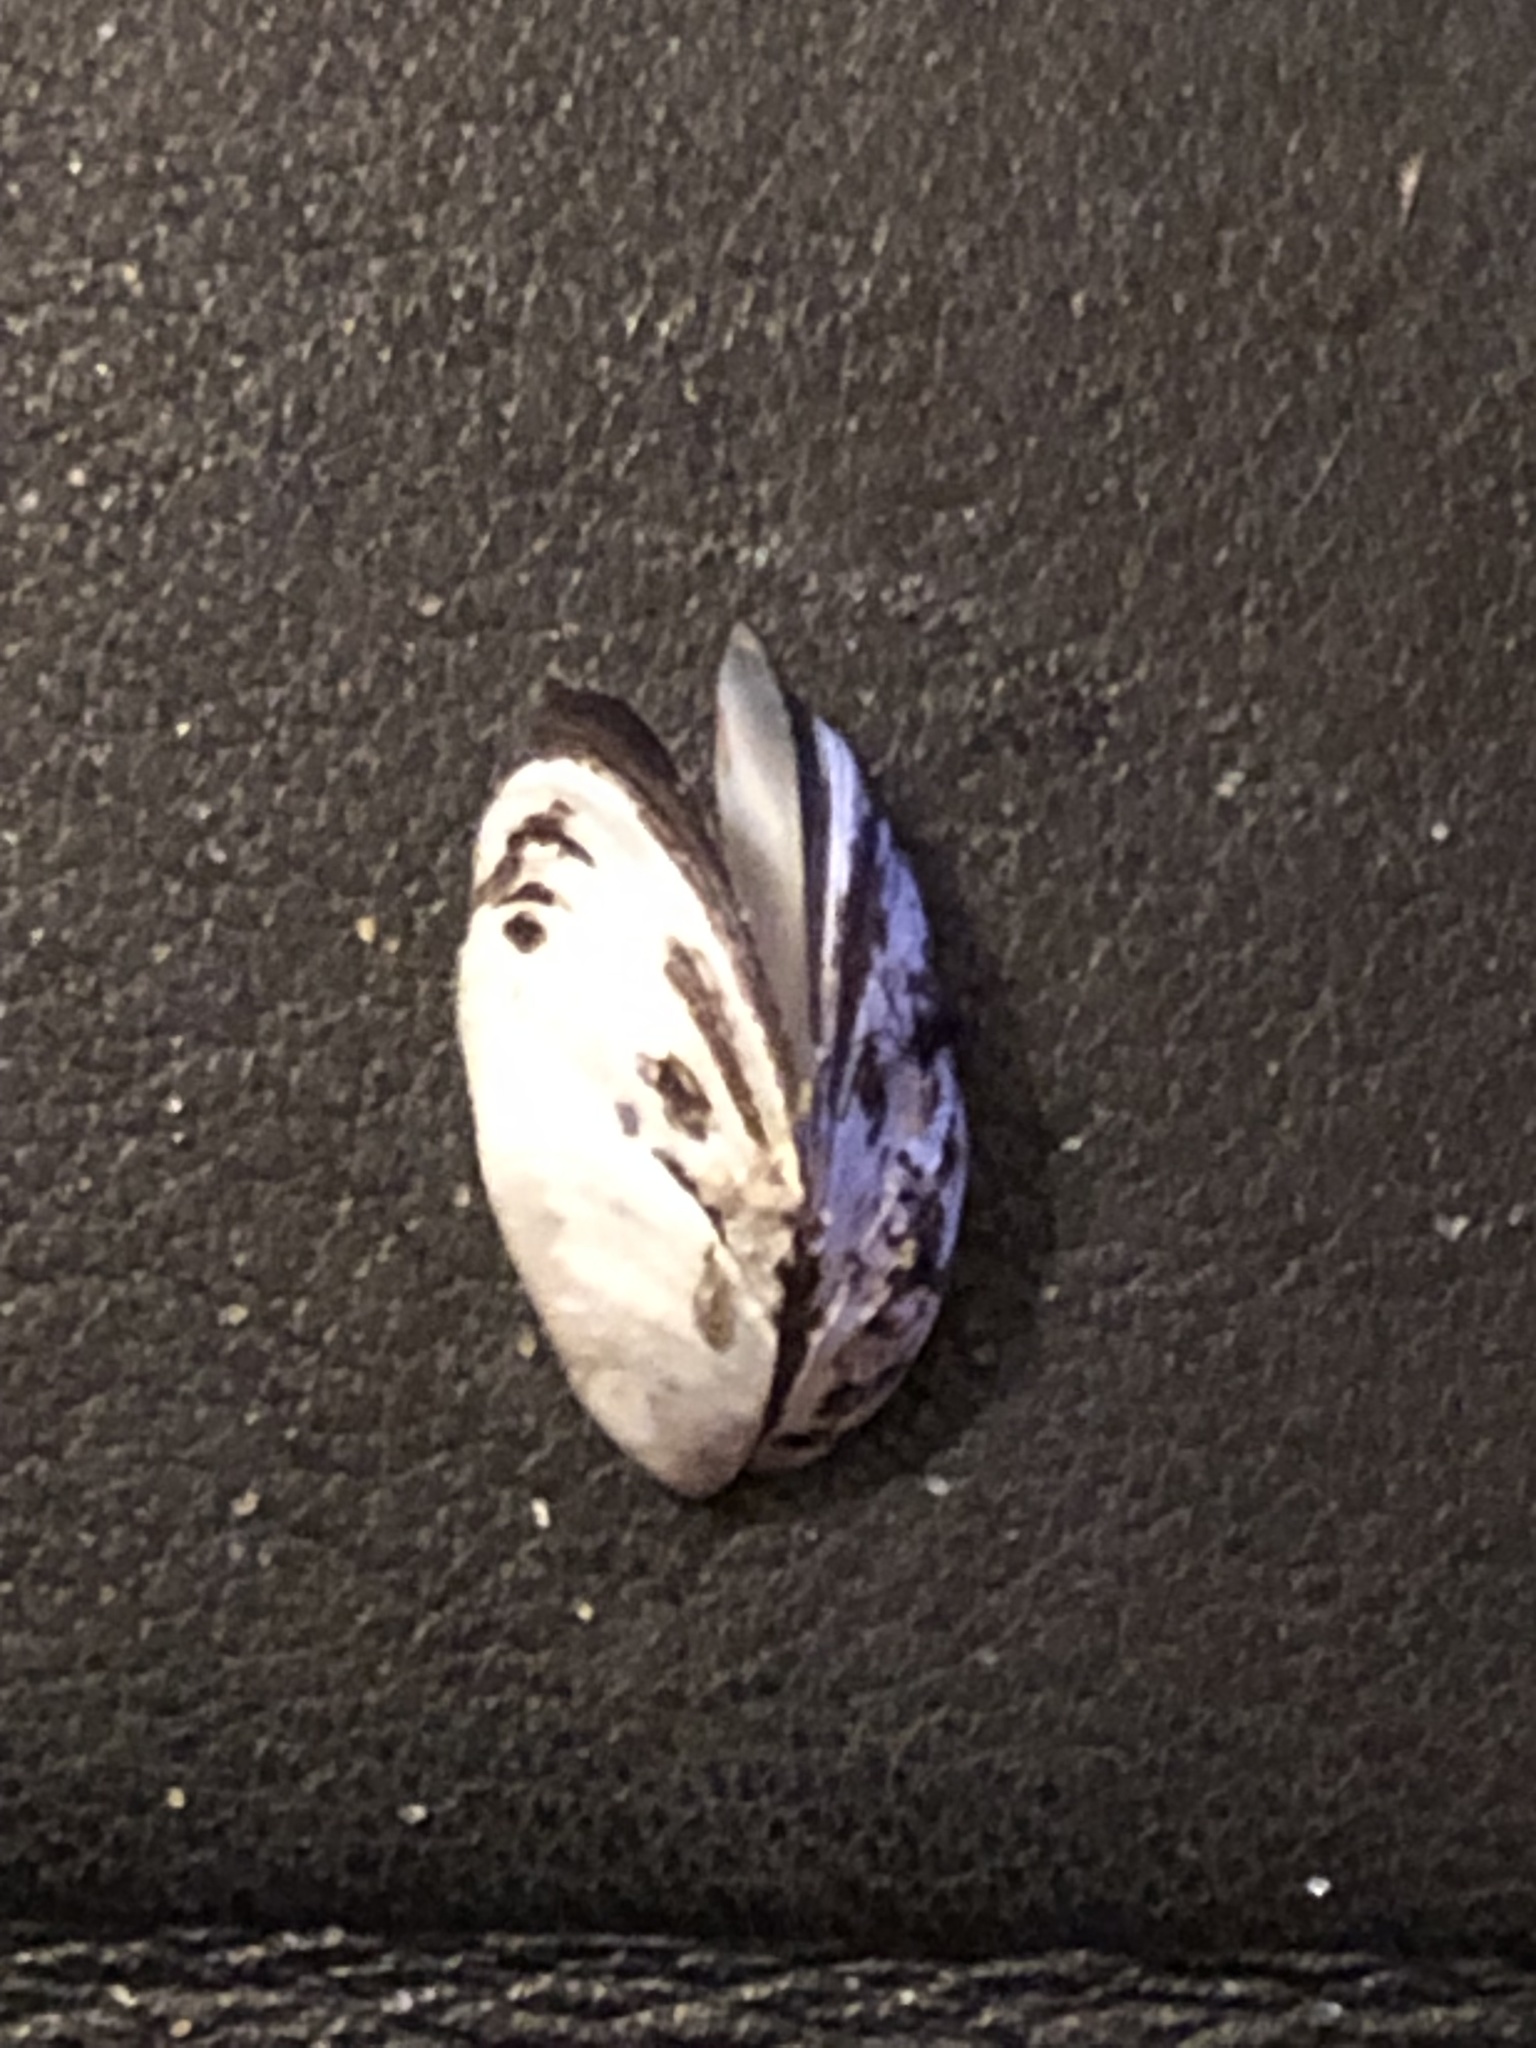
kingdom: Animalia
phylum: Mollusca
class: Bivalvia
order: Myida
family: Dreissenidae
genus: Dreissena
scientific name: Dreissena polymorpha
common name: Zebra mussel
